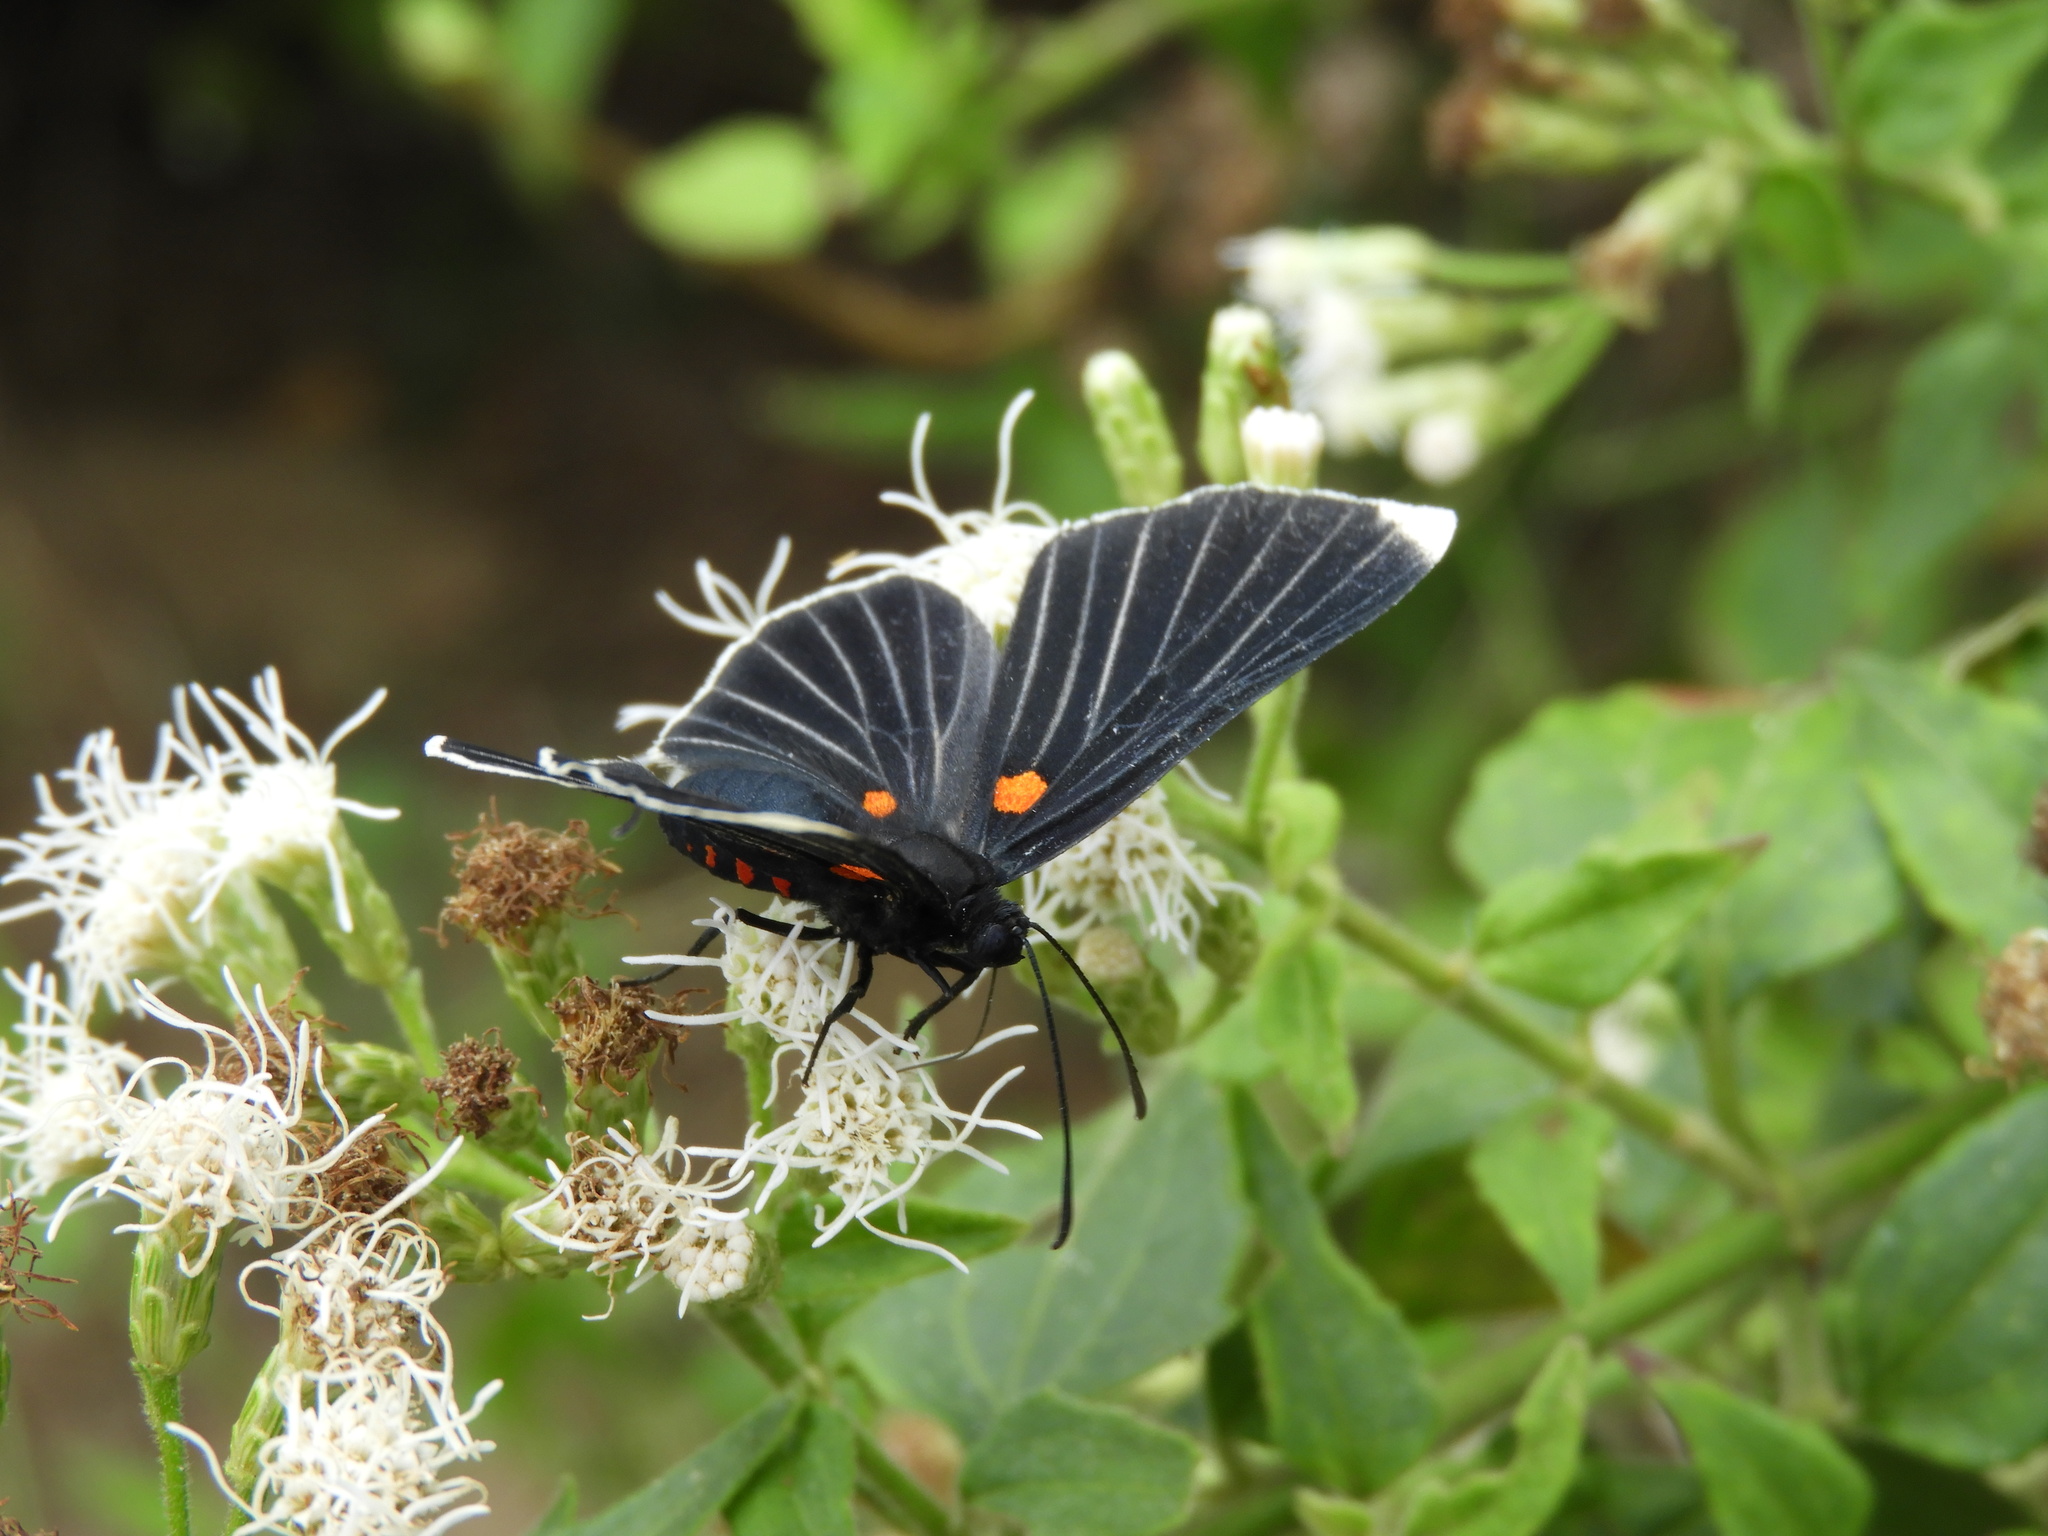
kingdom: Animalia
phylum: Arthropoda
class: Insecta
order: Lepidoptera
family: Lycaenidae
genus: Melanis
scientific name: Melanis
